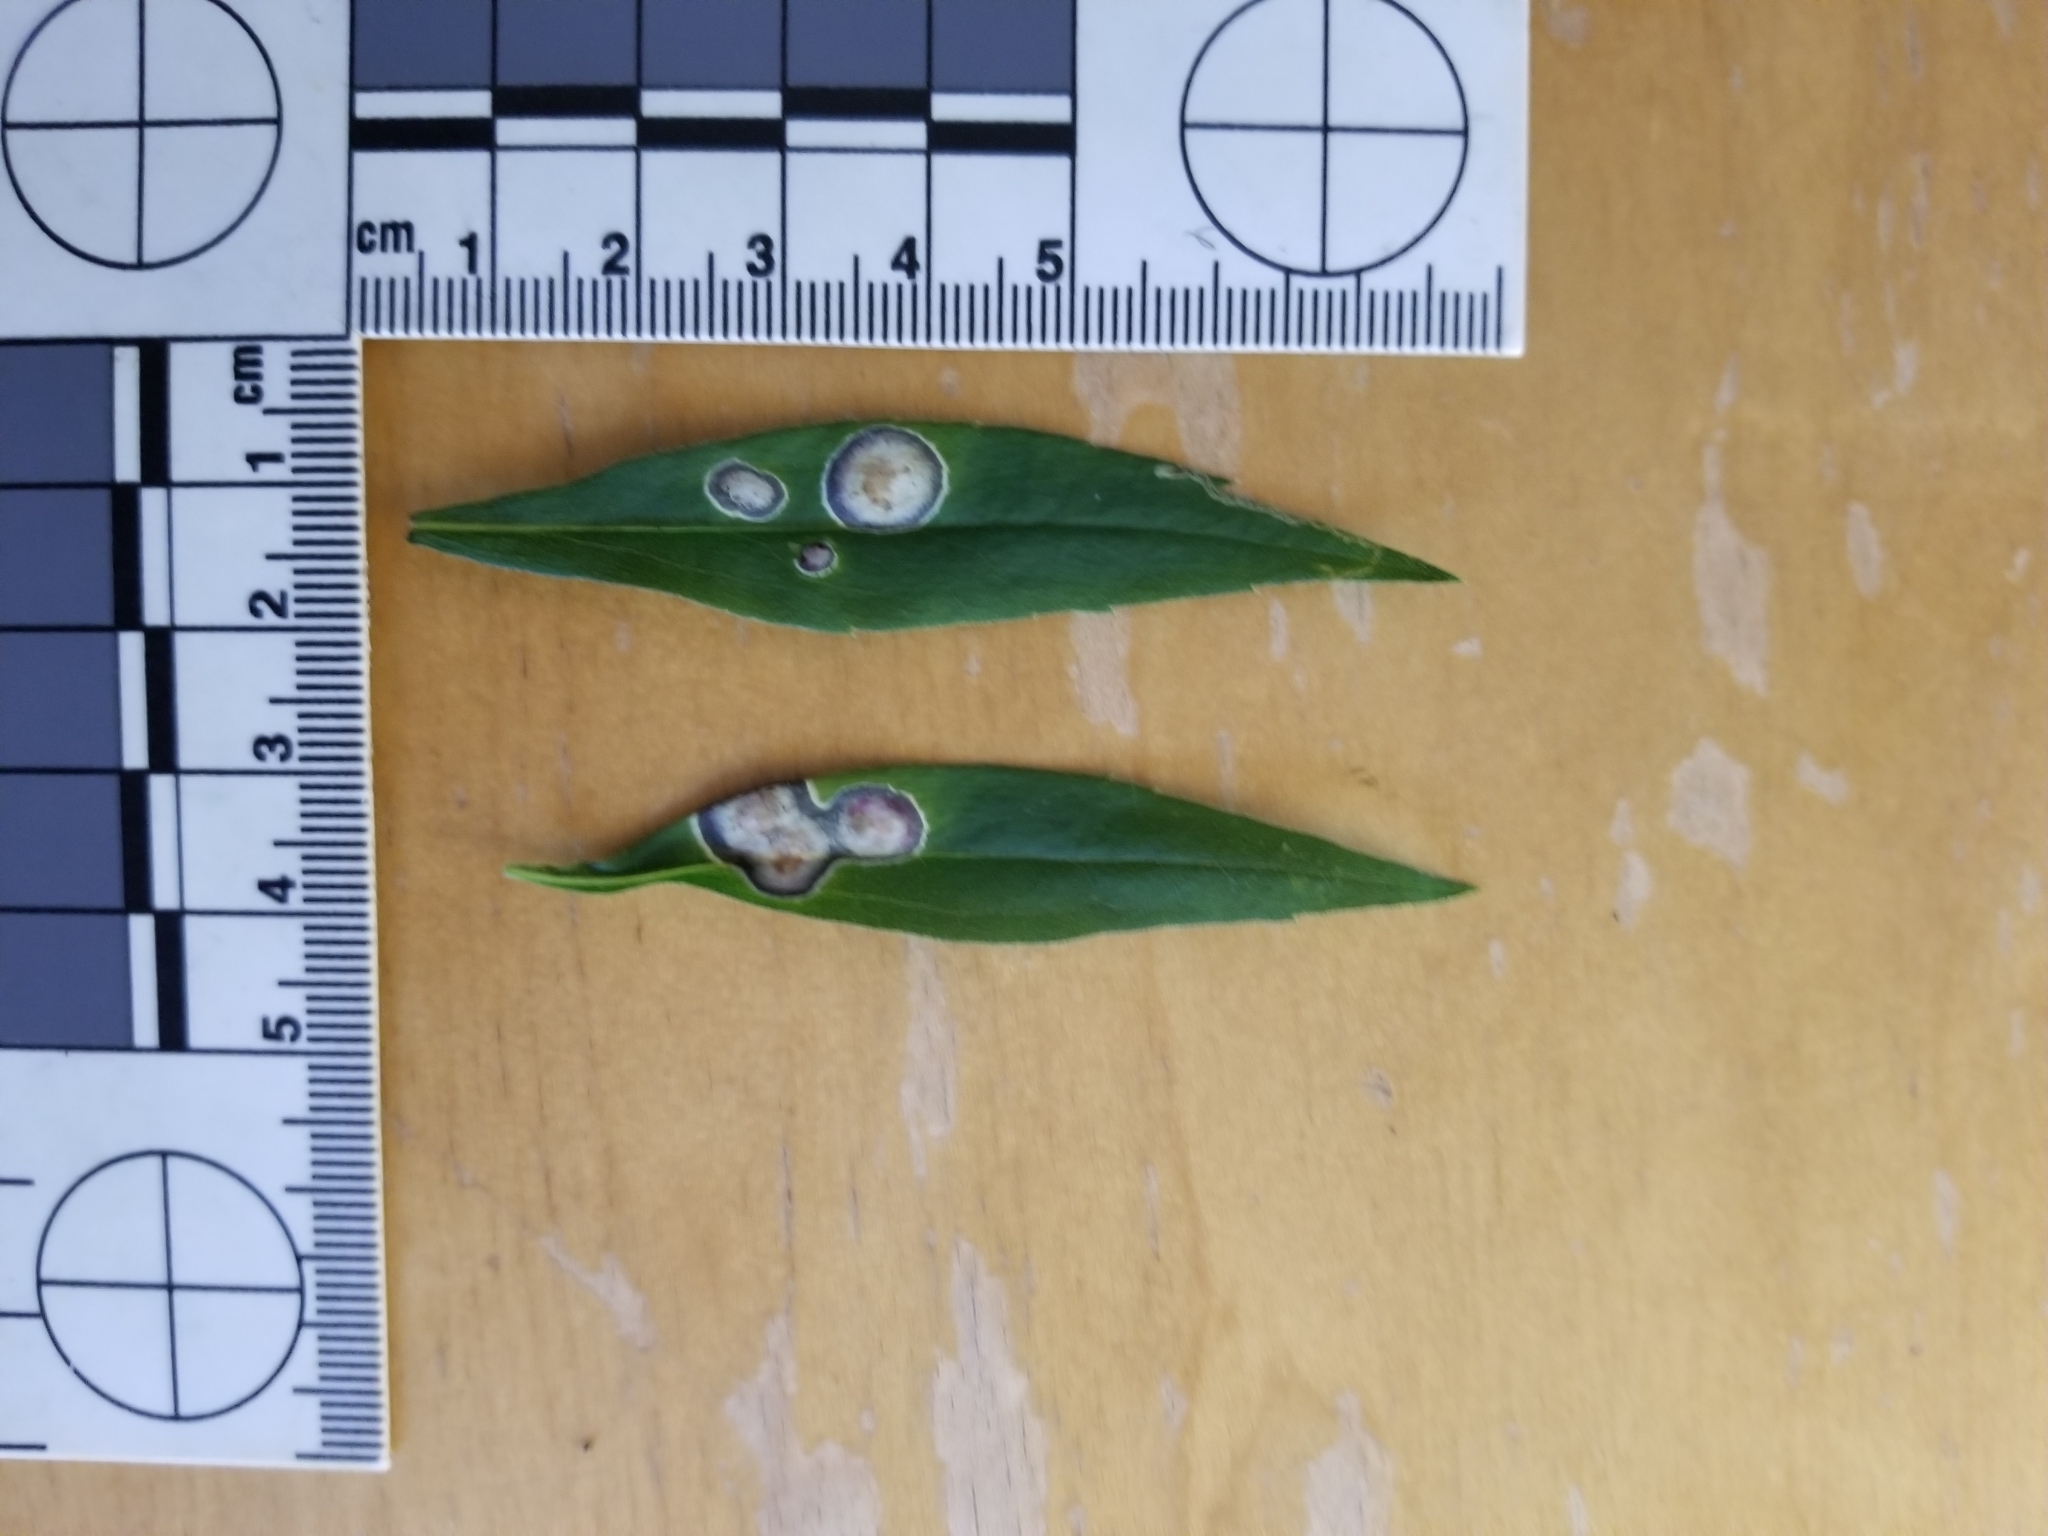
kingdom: Animalia
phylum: Arthropoda
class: Insecta
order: Diptera
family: Cecidomyiidae
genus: Asteromyia
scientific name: Asteromyia carbonifera
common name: Carbonifera goldenrod gall midge
